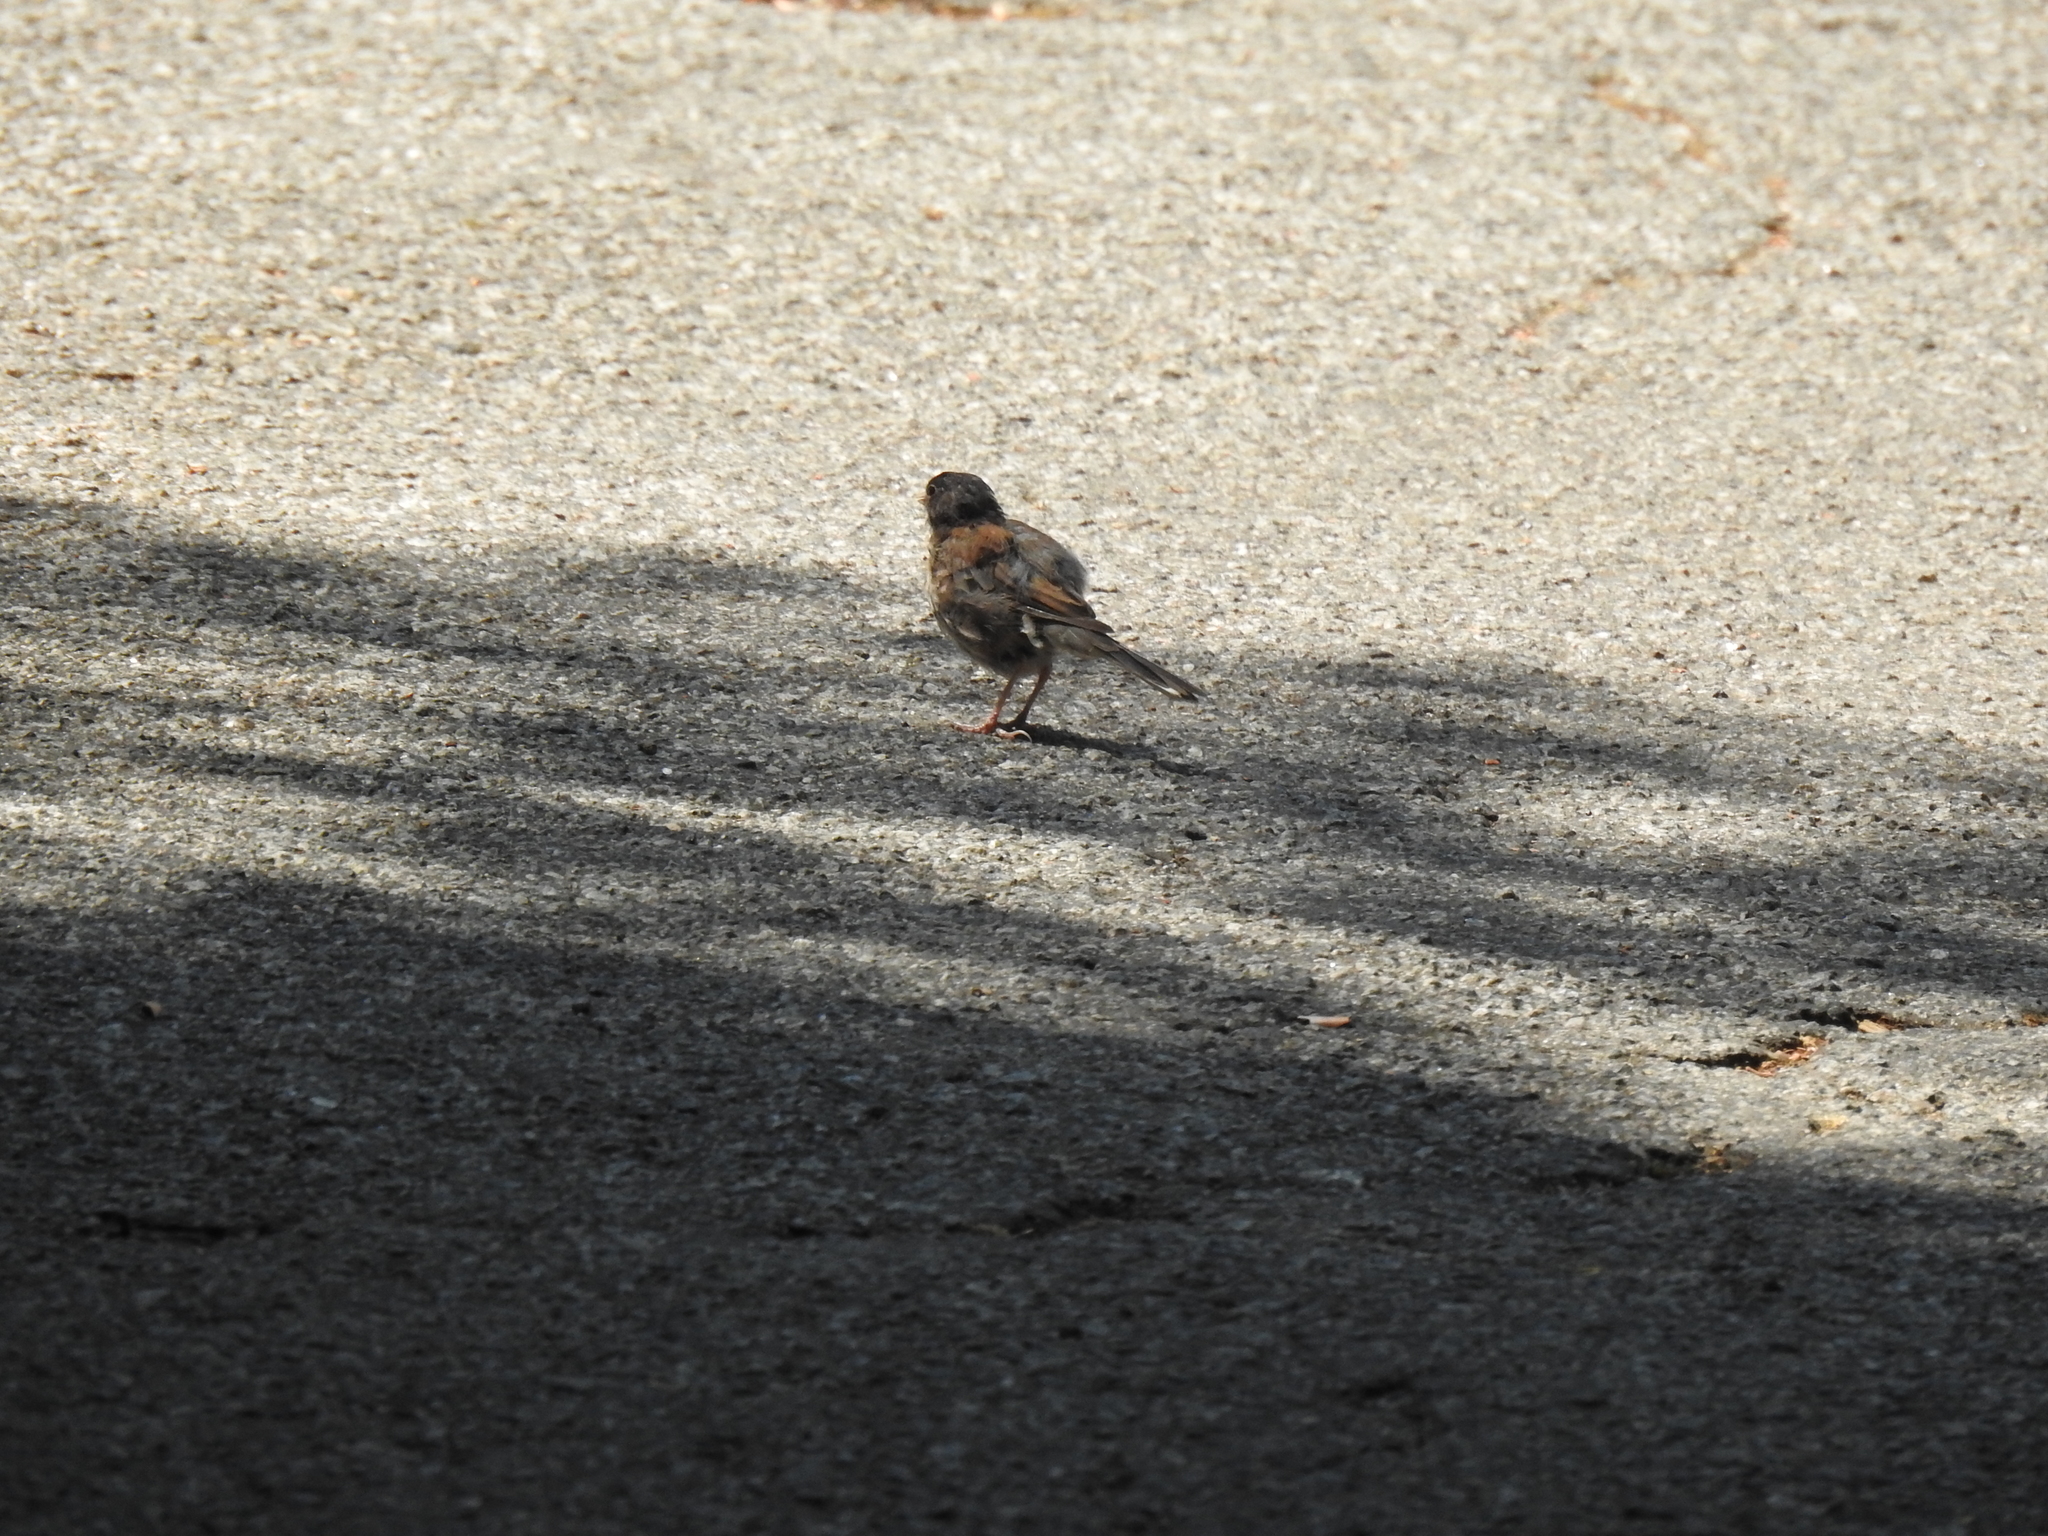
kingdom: Animalia
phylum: Chordata
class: Aves
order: Passeriformes
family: Passerellidae
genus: Junco
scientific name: Junco hyemalis
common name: Dark-eyed junco
